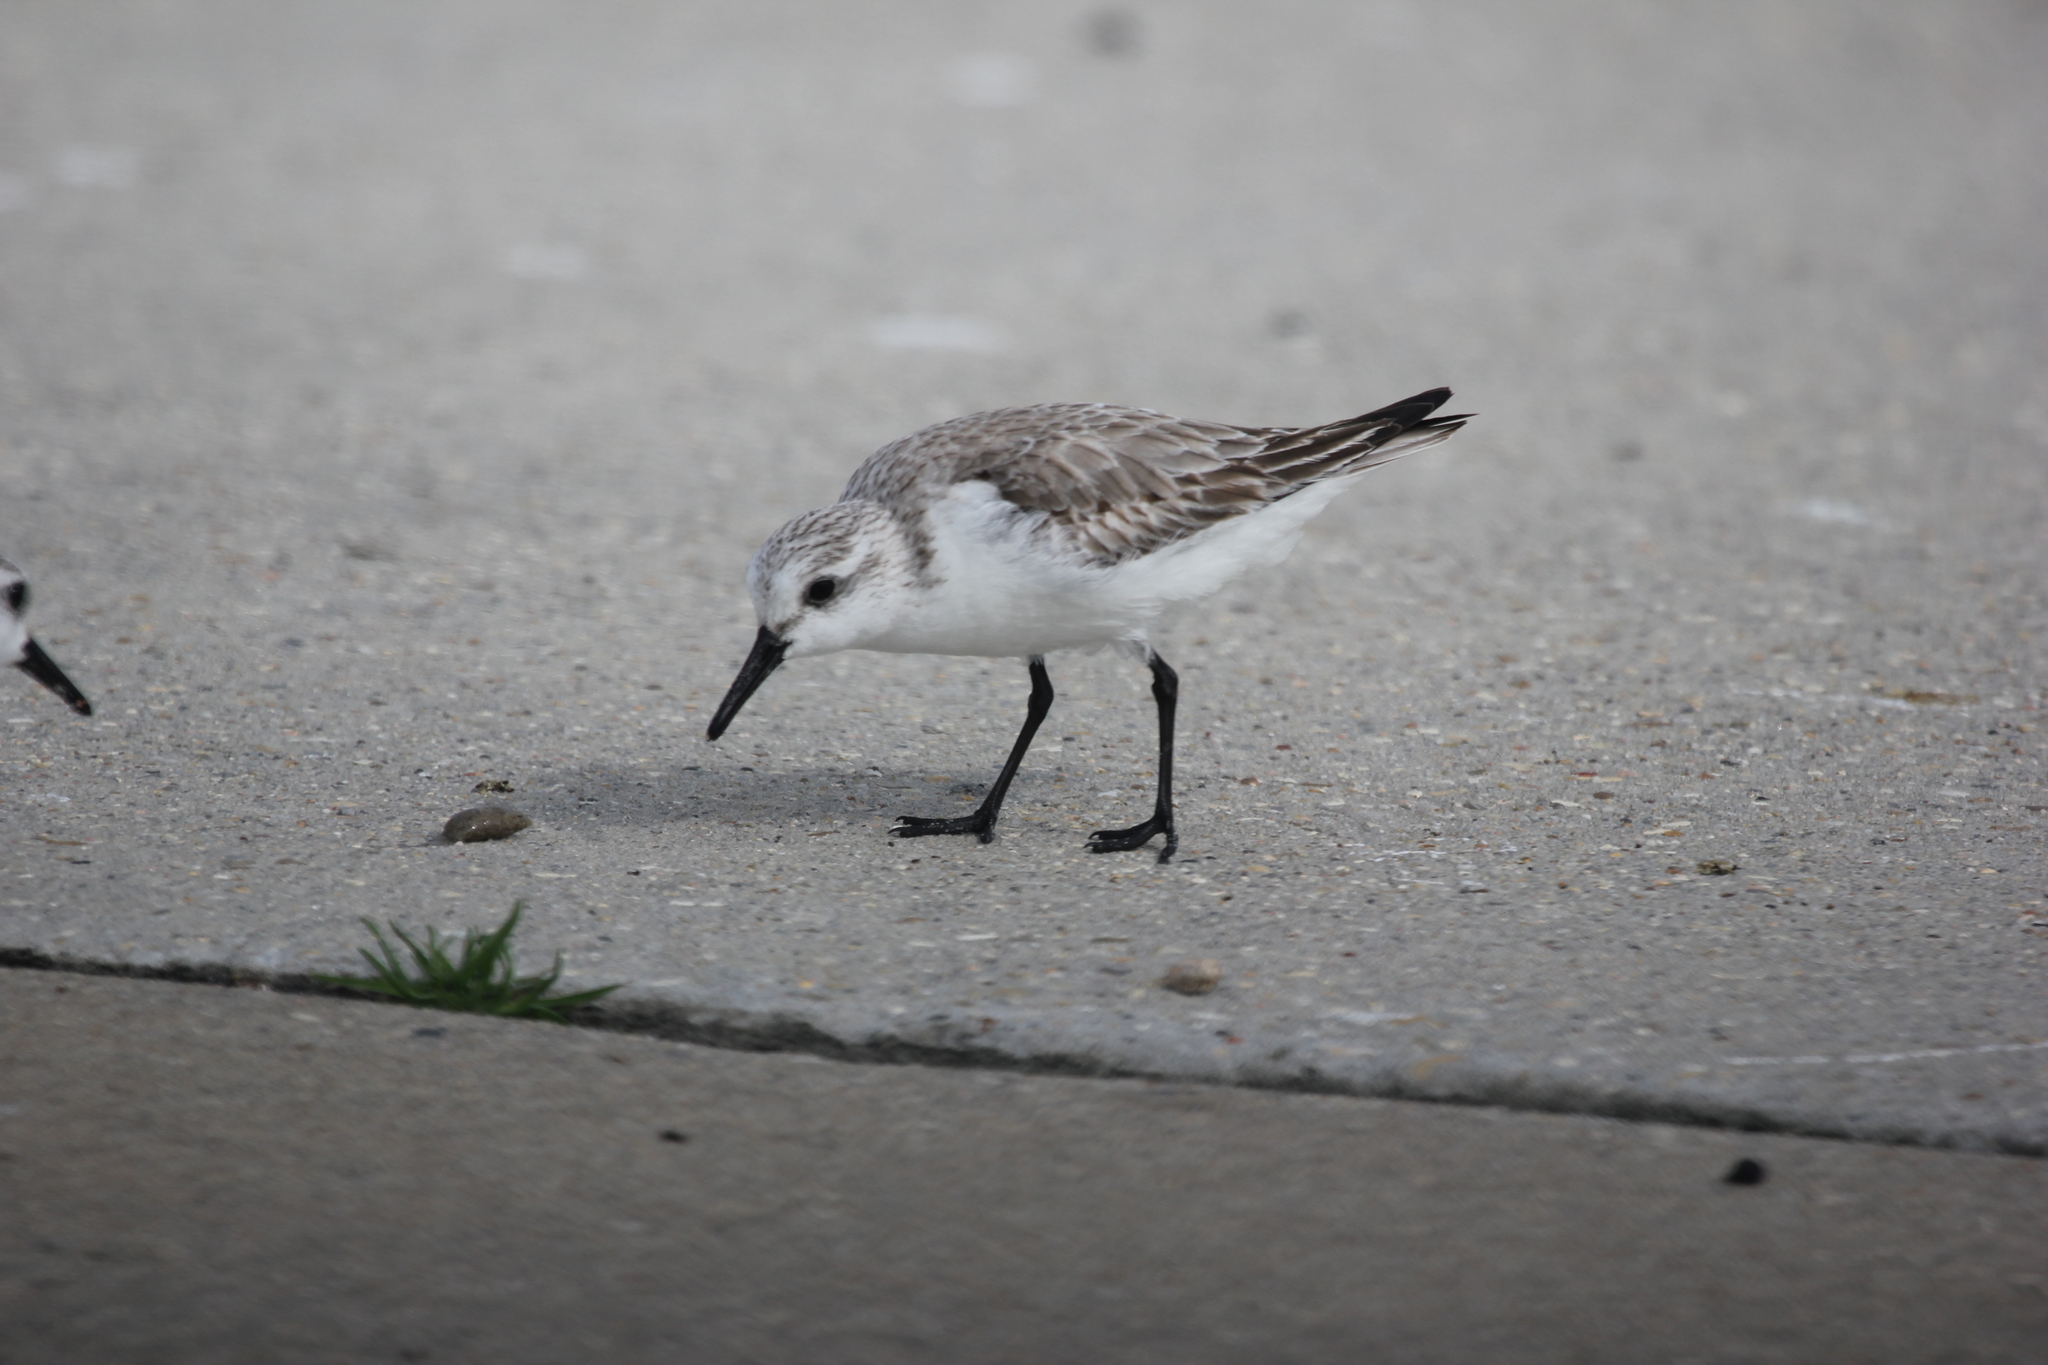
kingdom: Animalia
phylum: Chordata
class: Aves
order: Charadriiformes
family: Scolopacidae
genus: Calidris
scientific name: Calidris alba
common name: Sanderling
